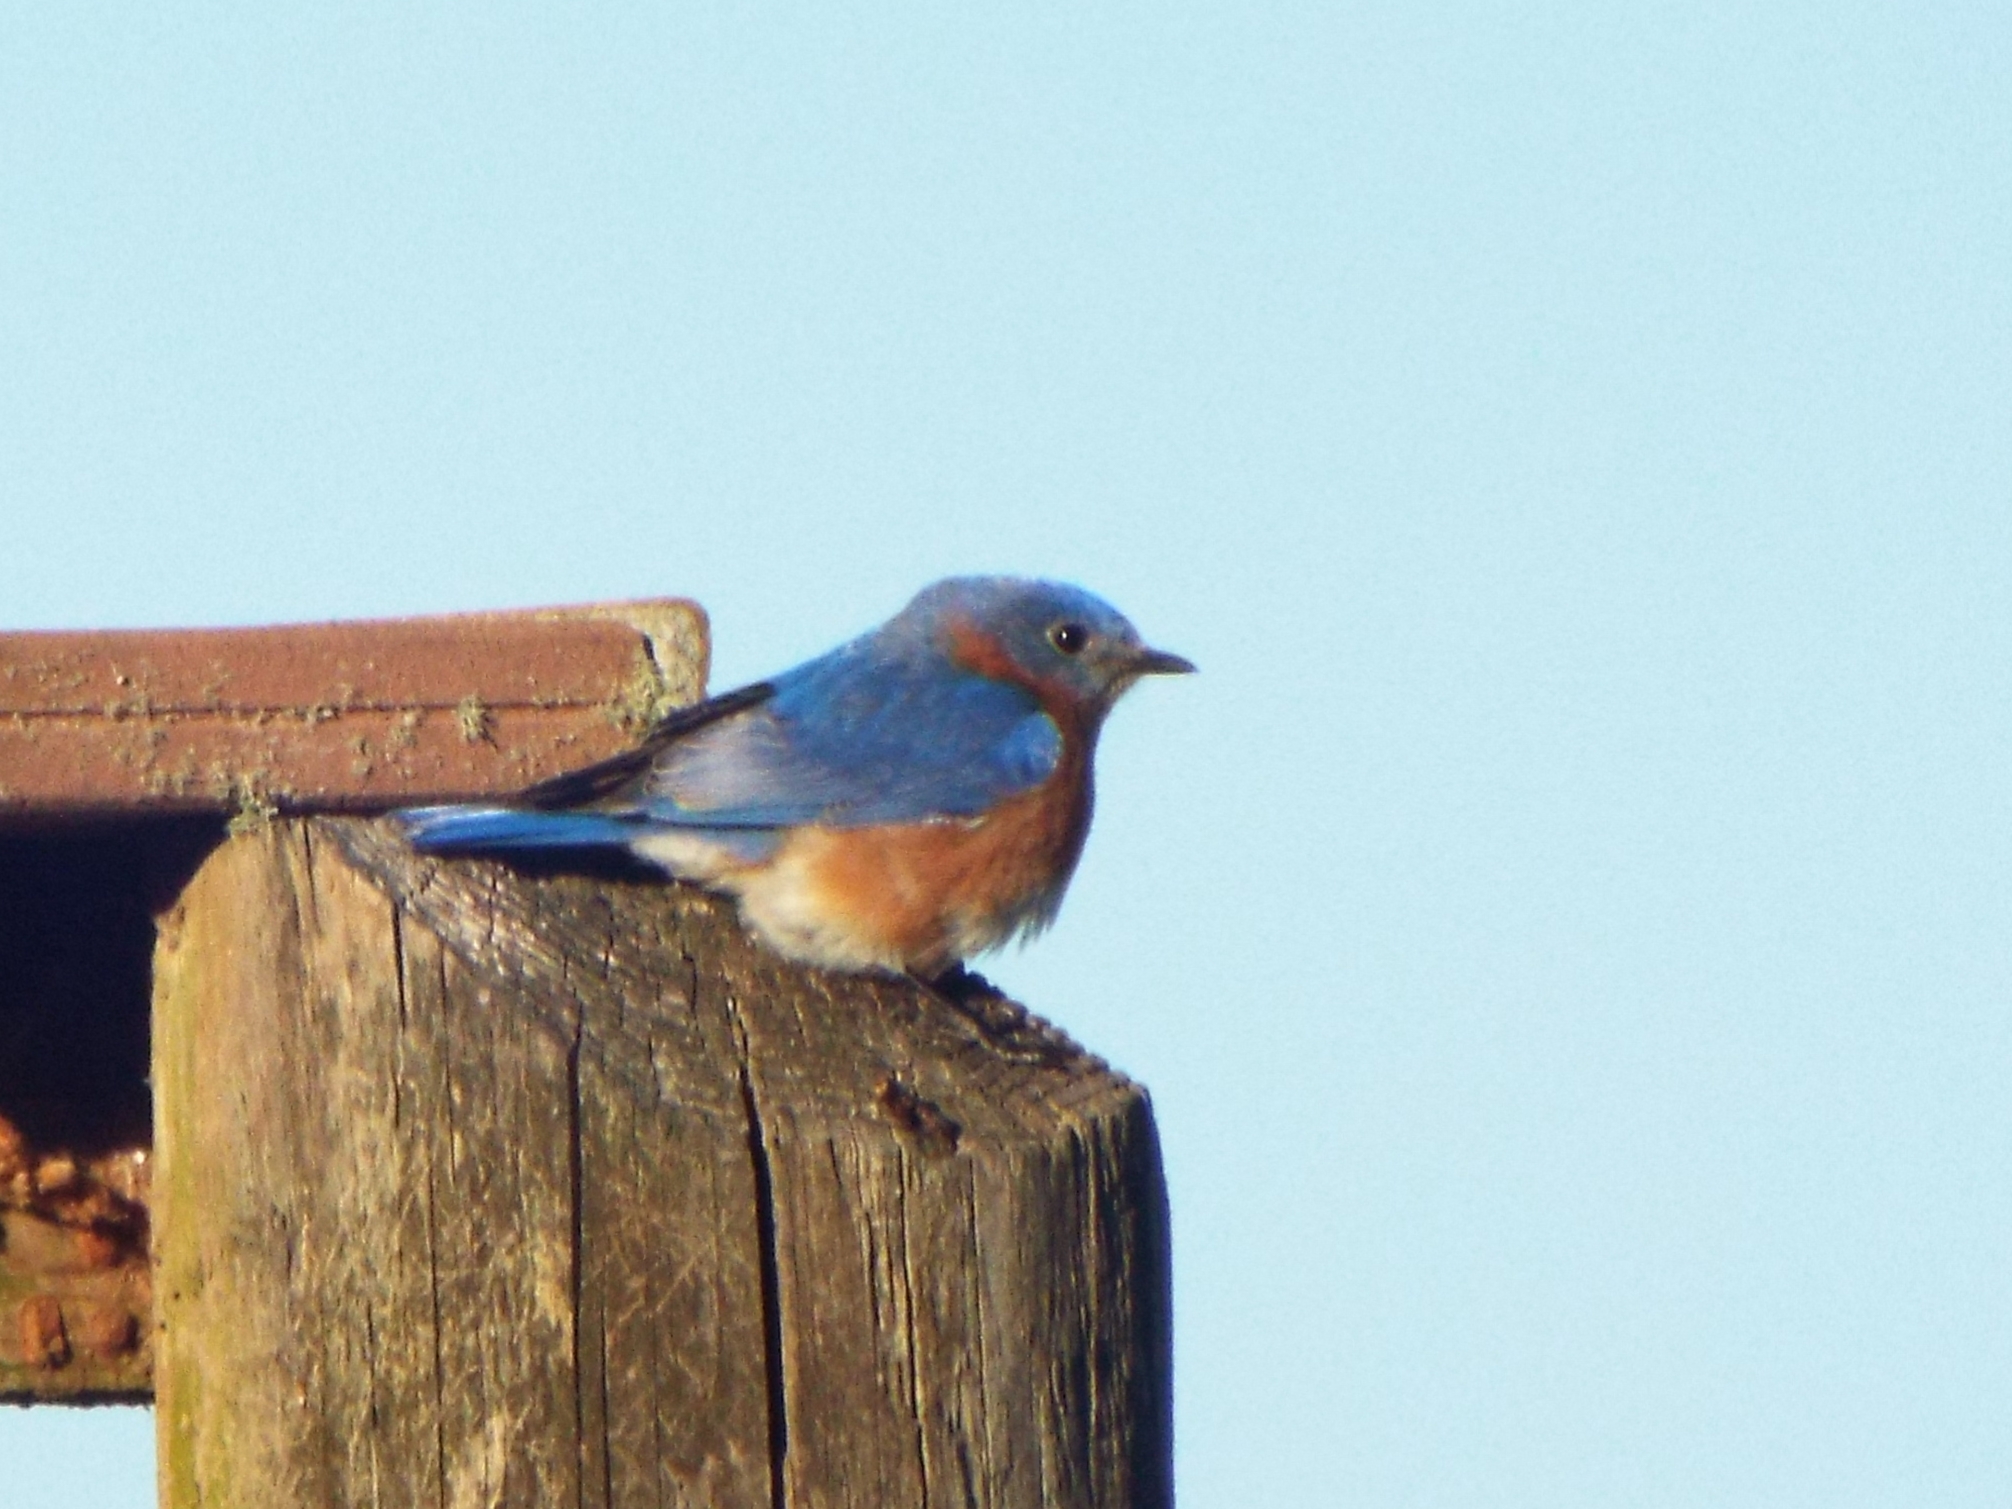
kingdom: Animalia
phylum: Chordata
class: Aves
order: Passeriformes
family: Turdidae
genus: Sialia
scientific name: Sialia sialis
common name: Eastern bluebird
